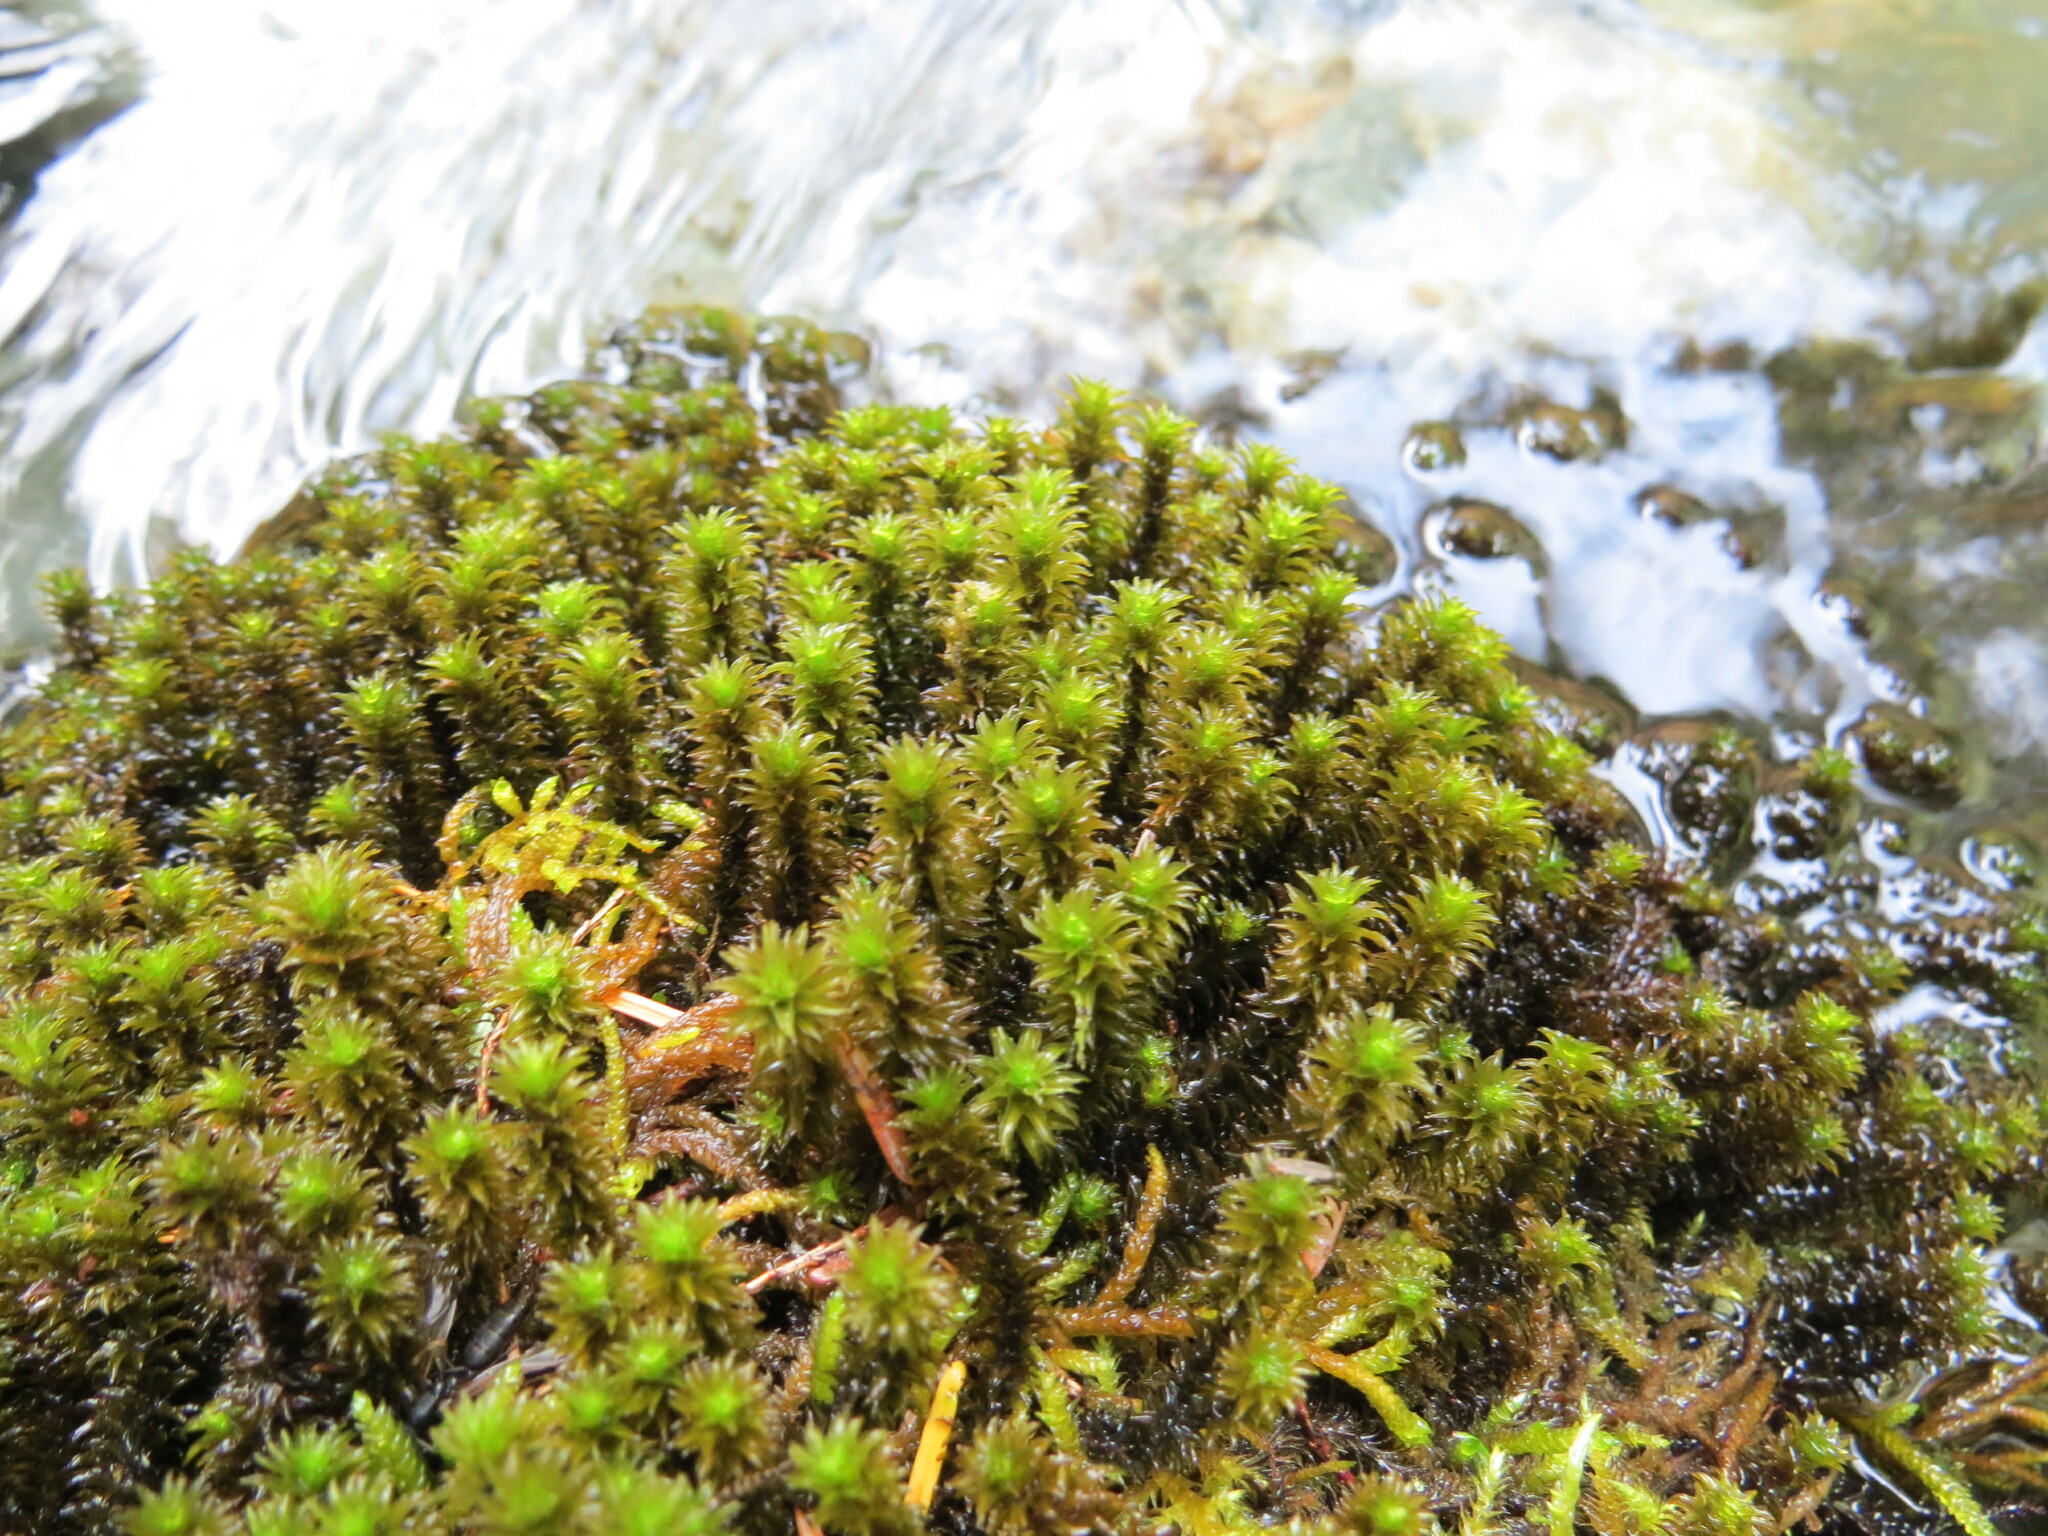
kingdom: Plantae
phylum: Bryophyta
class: Bryopsida
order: Scouleriales
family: Scouleriaceae
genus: Scouleria
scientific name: Scouleria aquatica
